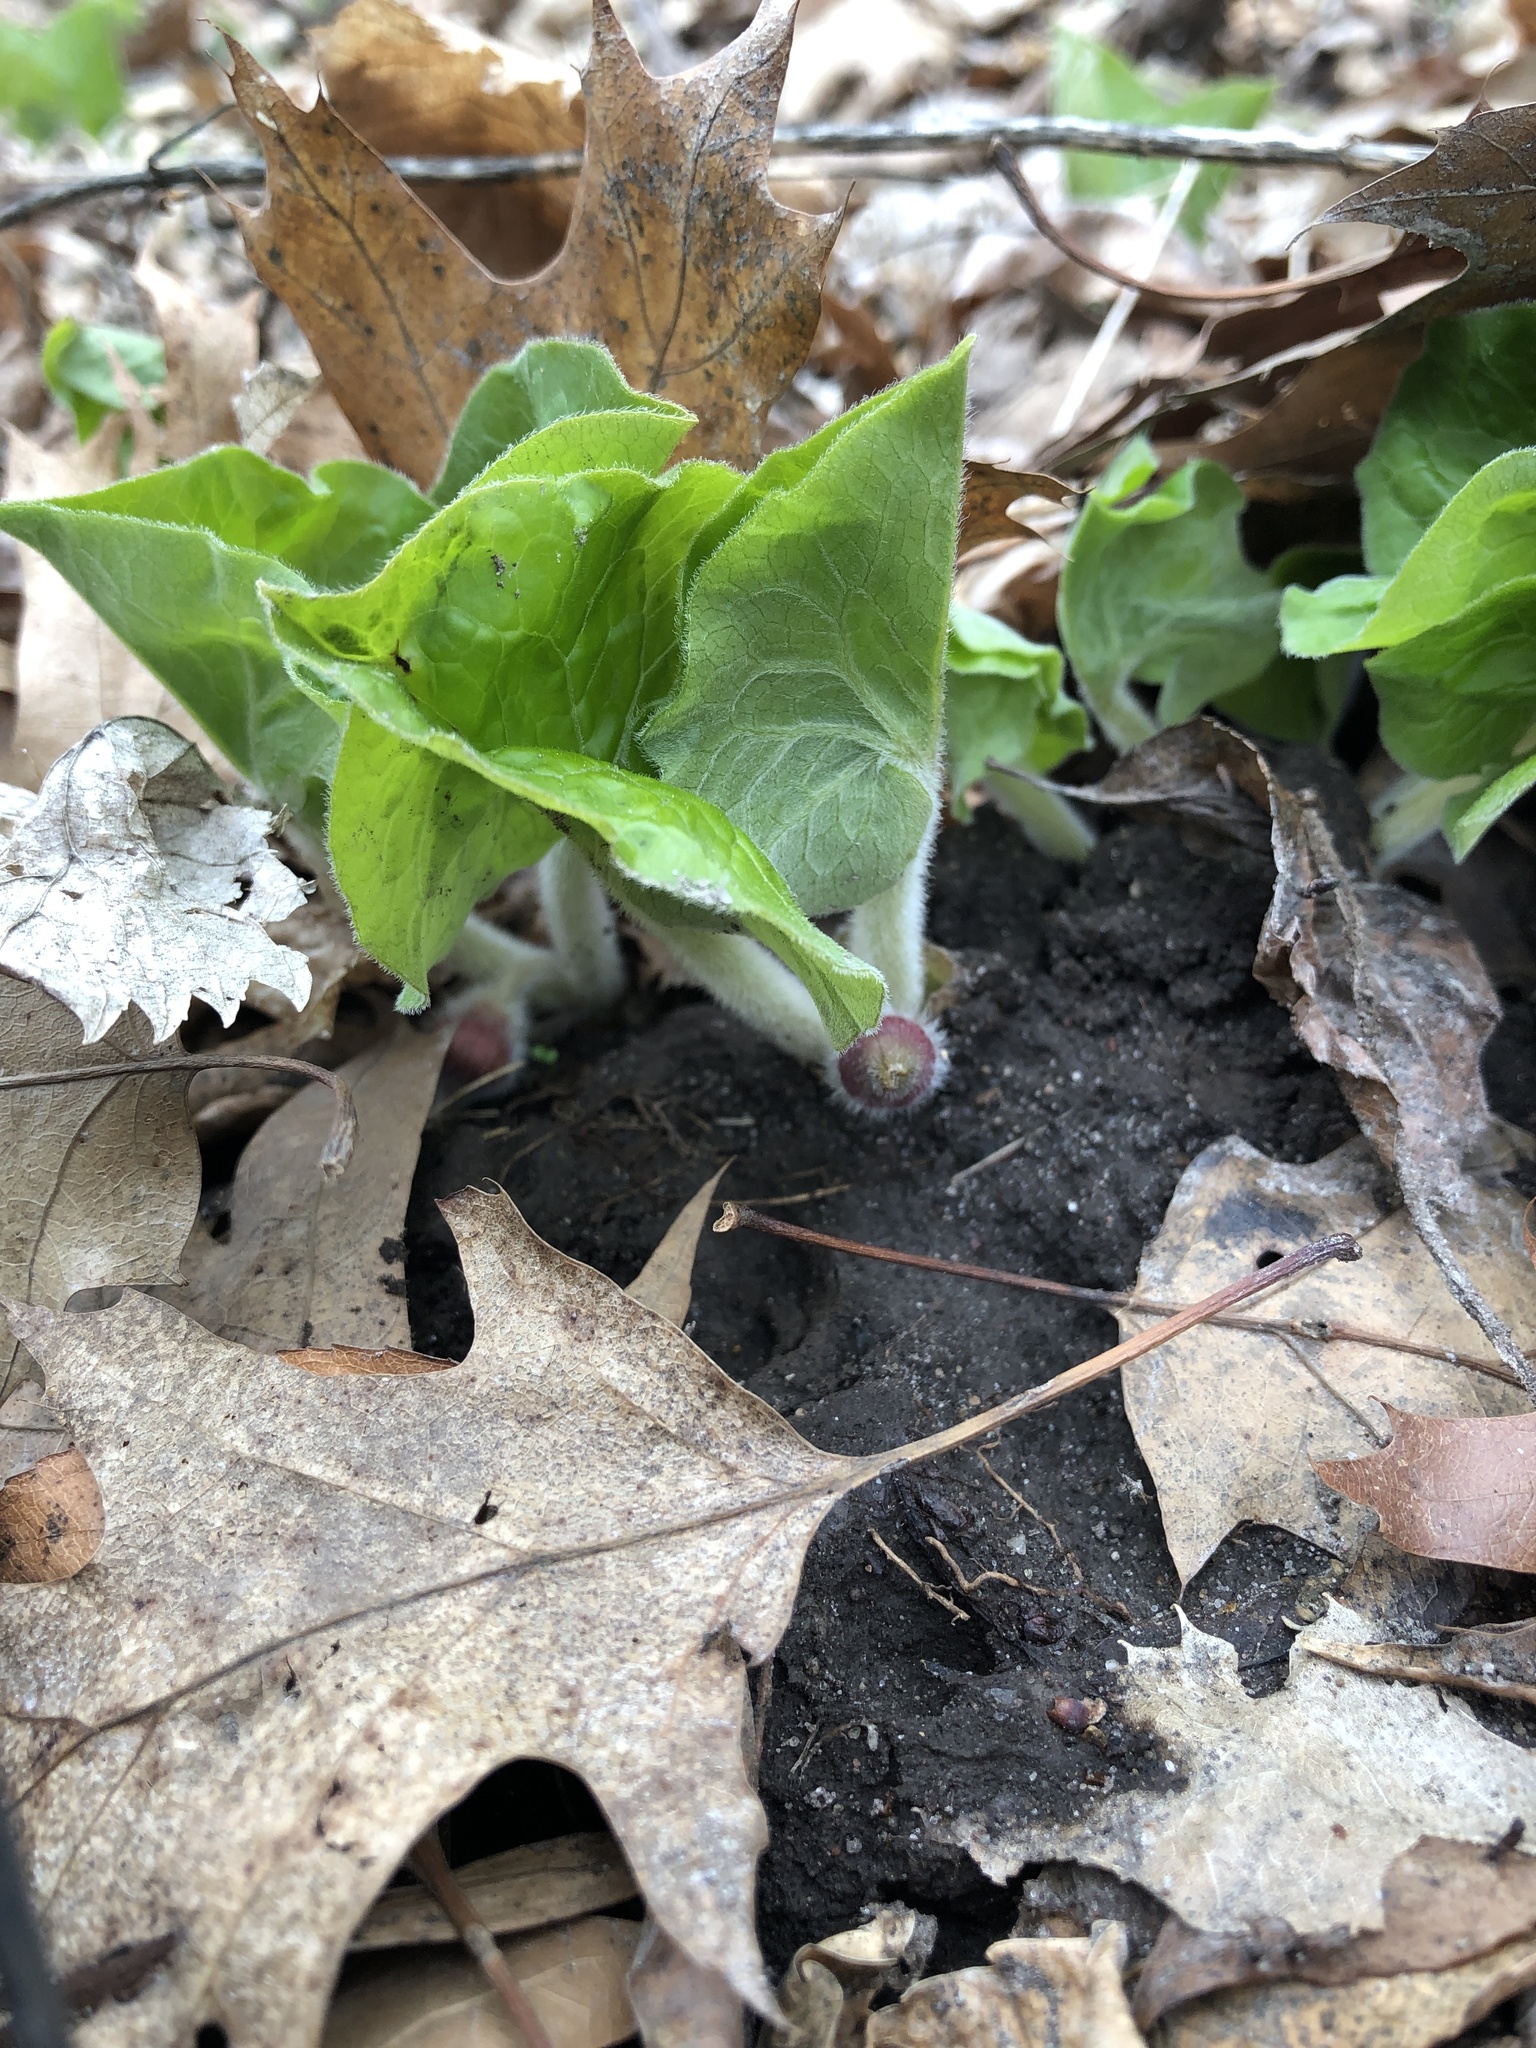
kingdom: Plantae
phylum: Tracheophyta
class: Magnoliopsida
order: Piperales
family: Aristolochiaceae
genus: Asarum
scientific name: Asarum canadense
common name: Wild ginger
